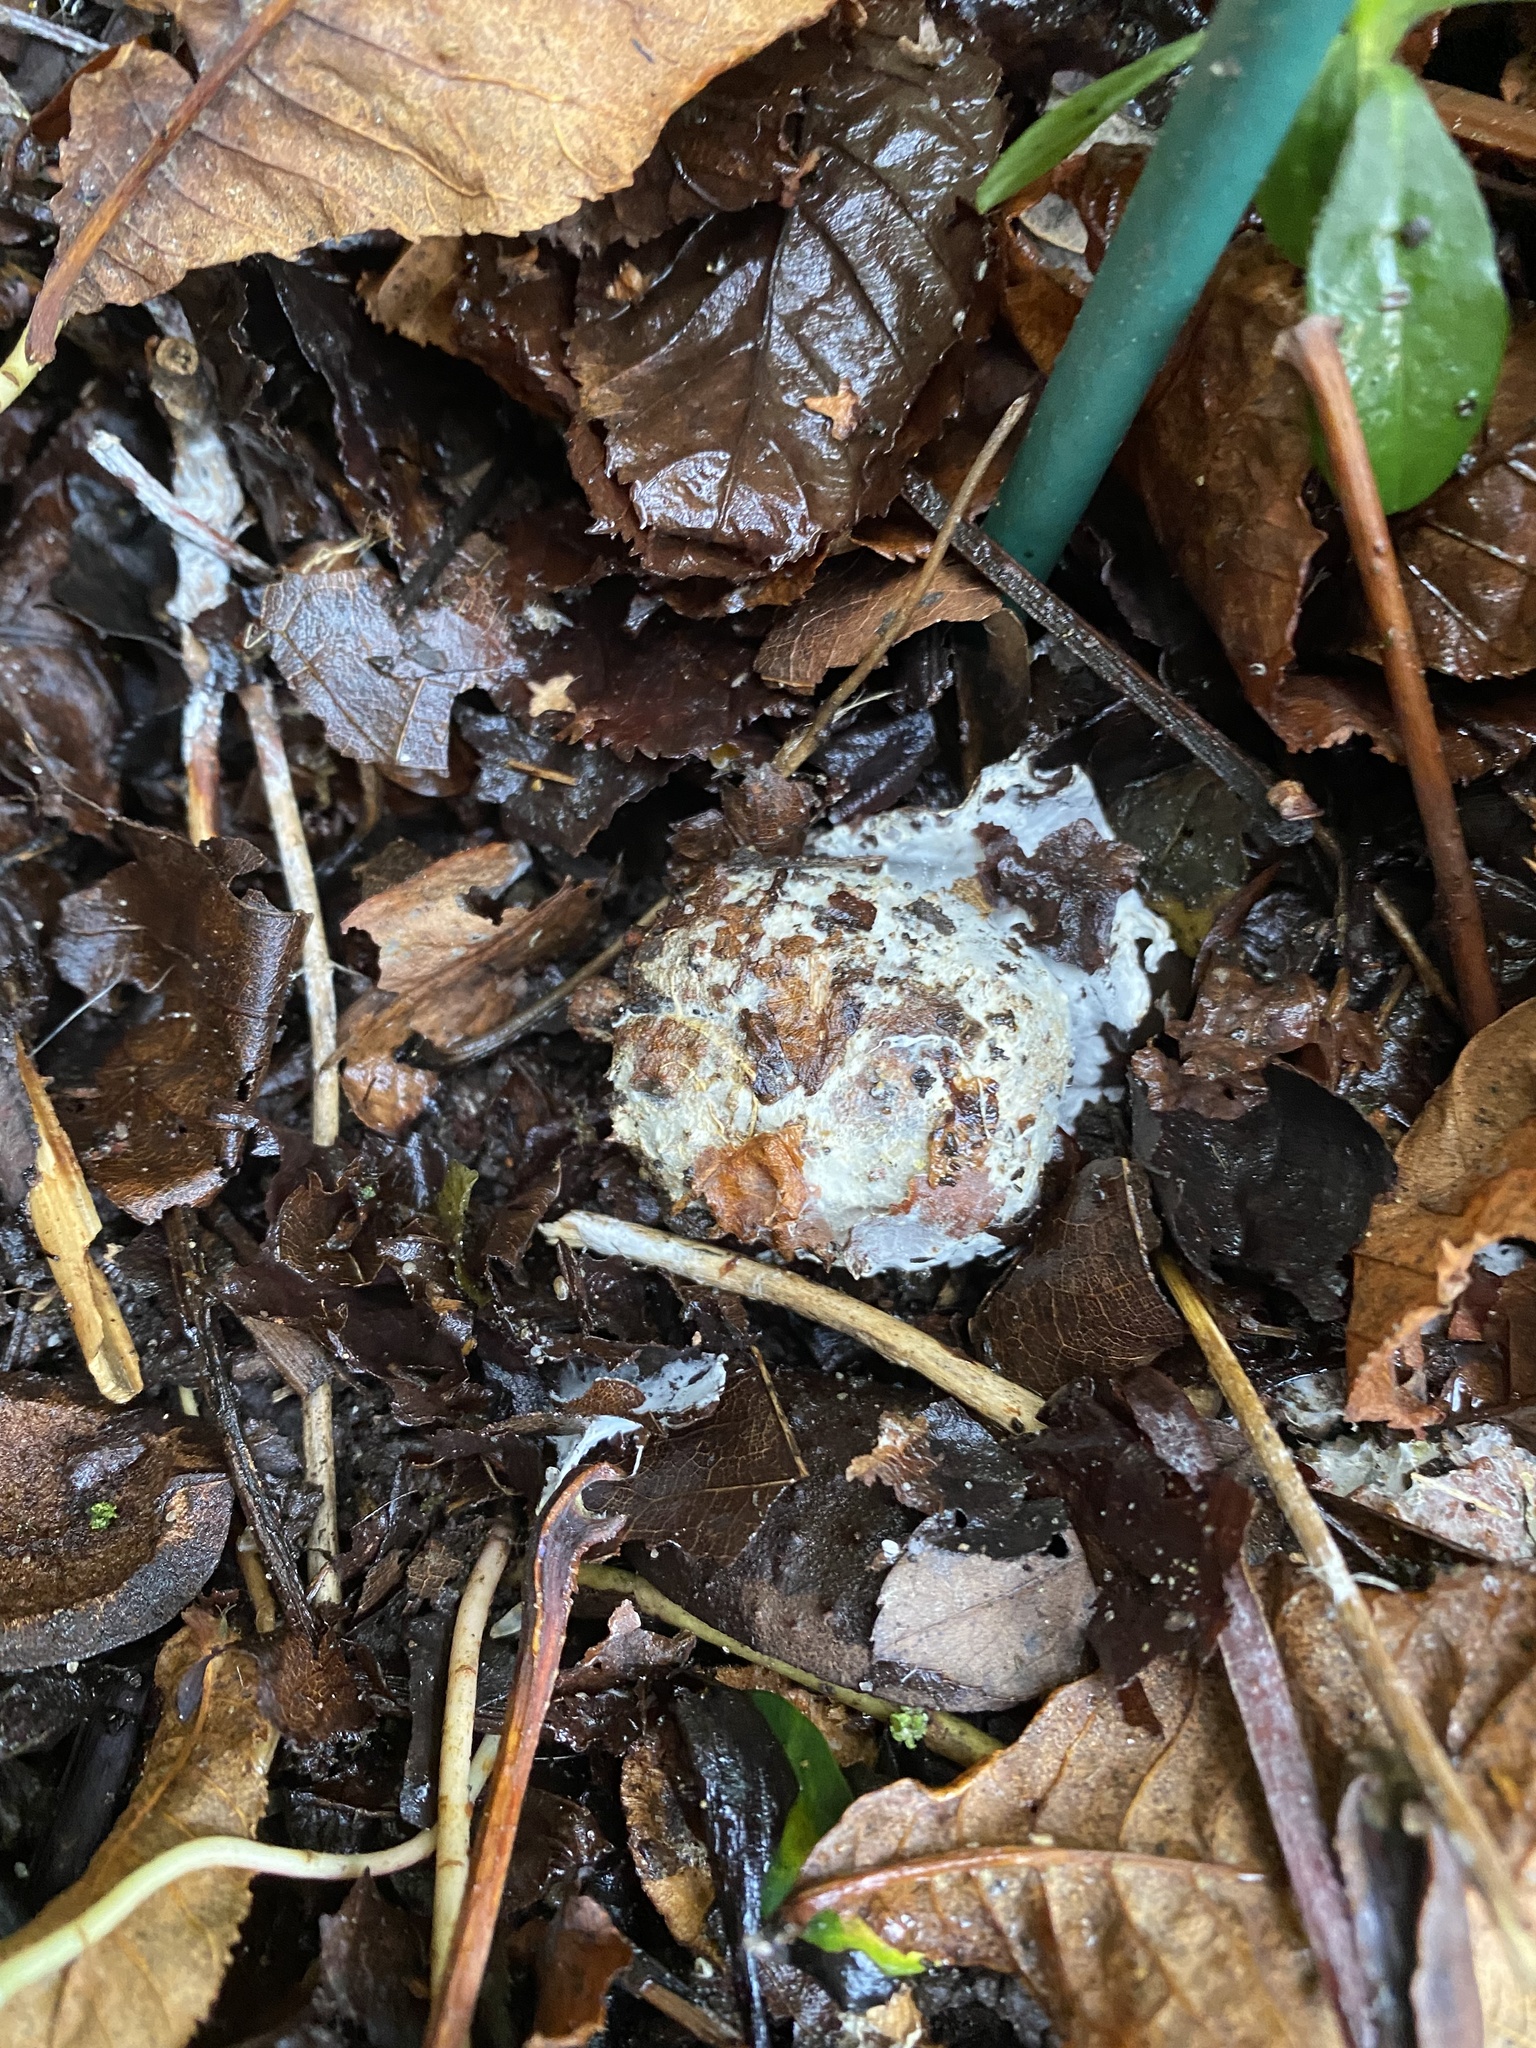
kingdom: Fungi
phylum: Ascomycota
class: Sordariomycetes
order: Hypocreales
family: Hypocreaceae
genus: Hypomyces
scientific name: Hypomyces chrysospermus
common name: Bolete mould
